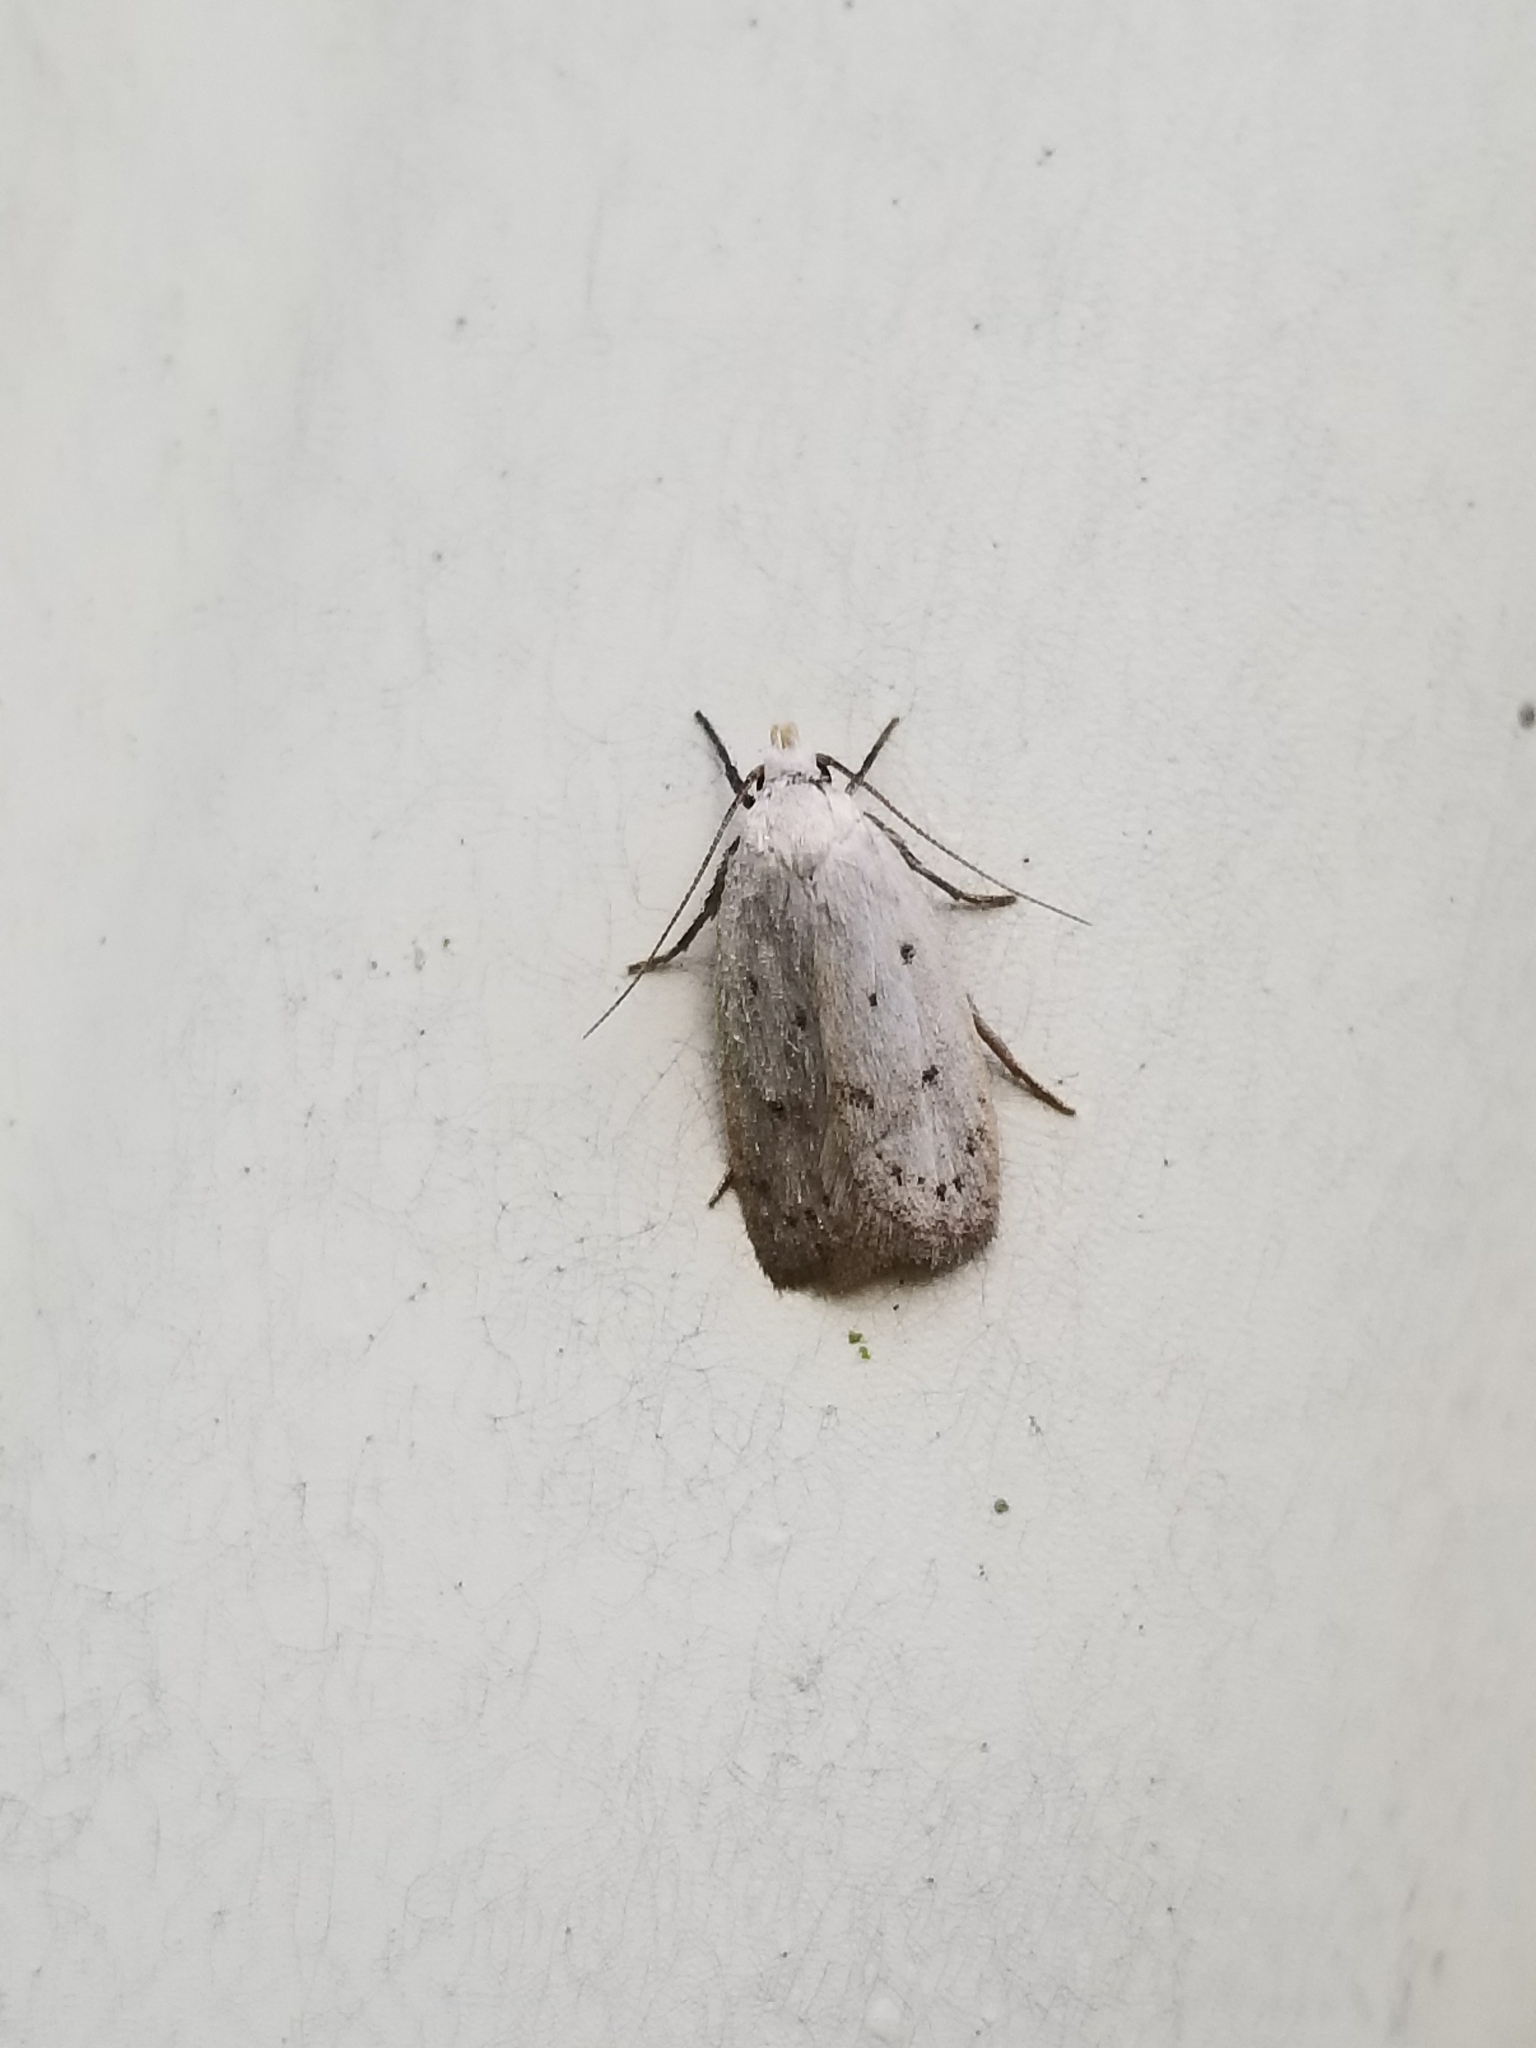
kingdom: Animalia
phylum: Arthropoda
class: Insecta
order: Lepidoptera
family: Oecophoridae
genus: Inga
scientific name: Inga cretacea
